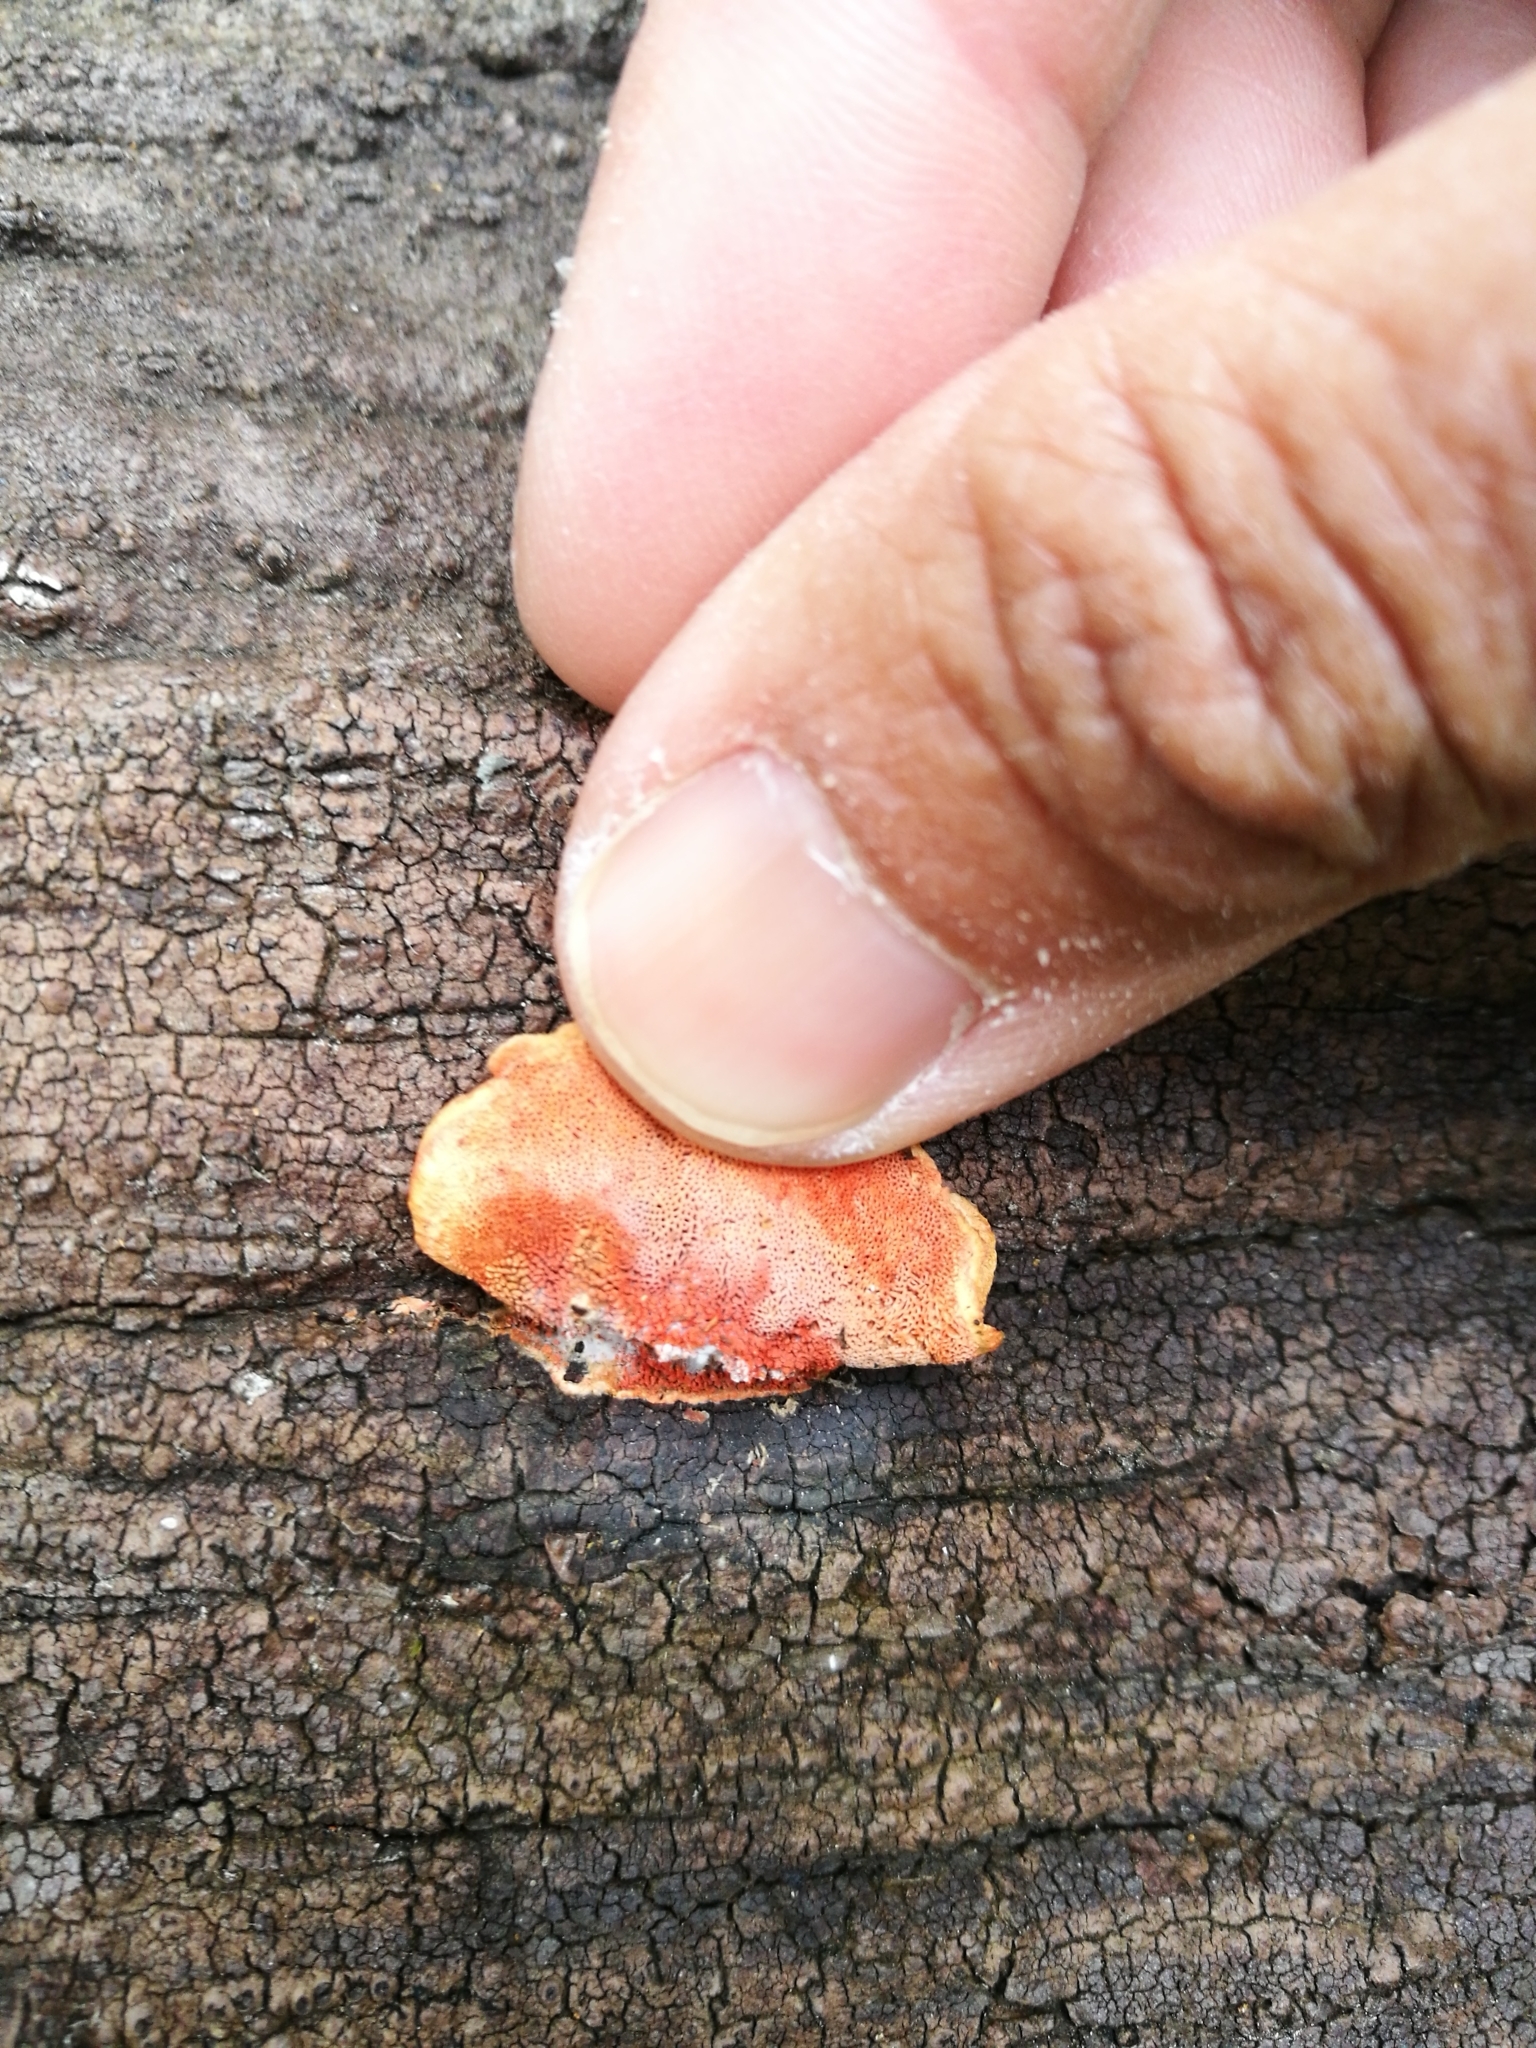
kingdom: Fungi
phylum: Basidiomycota
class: Agaricomycetes
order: Polyporales
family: Polyporaceae
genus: Trametes
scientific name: Trametes coccinea
